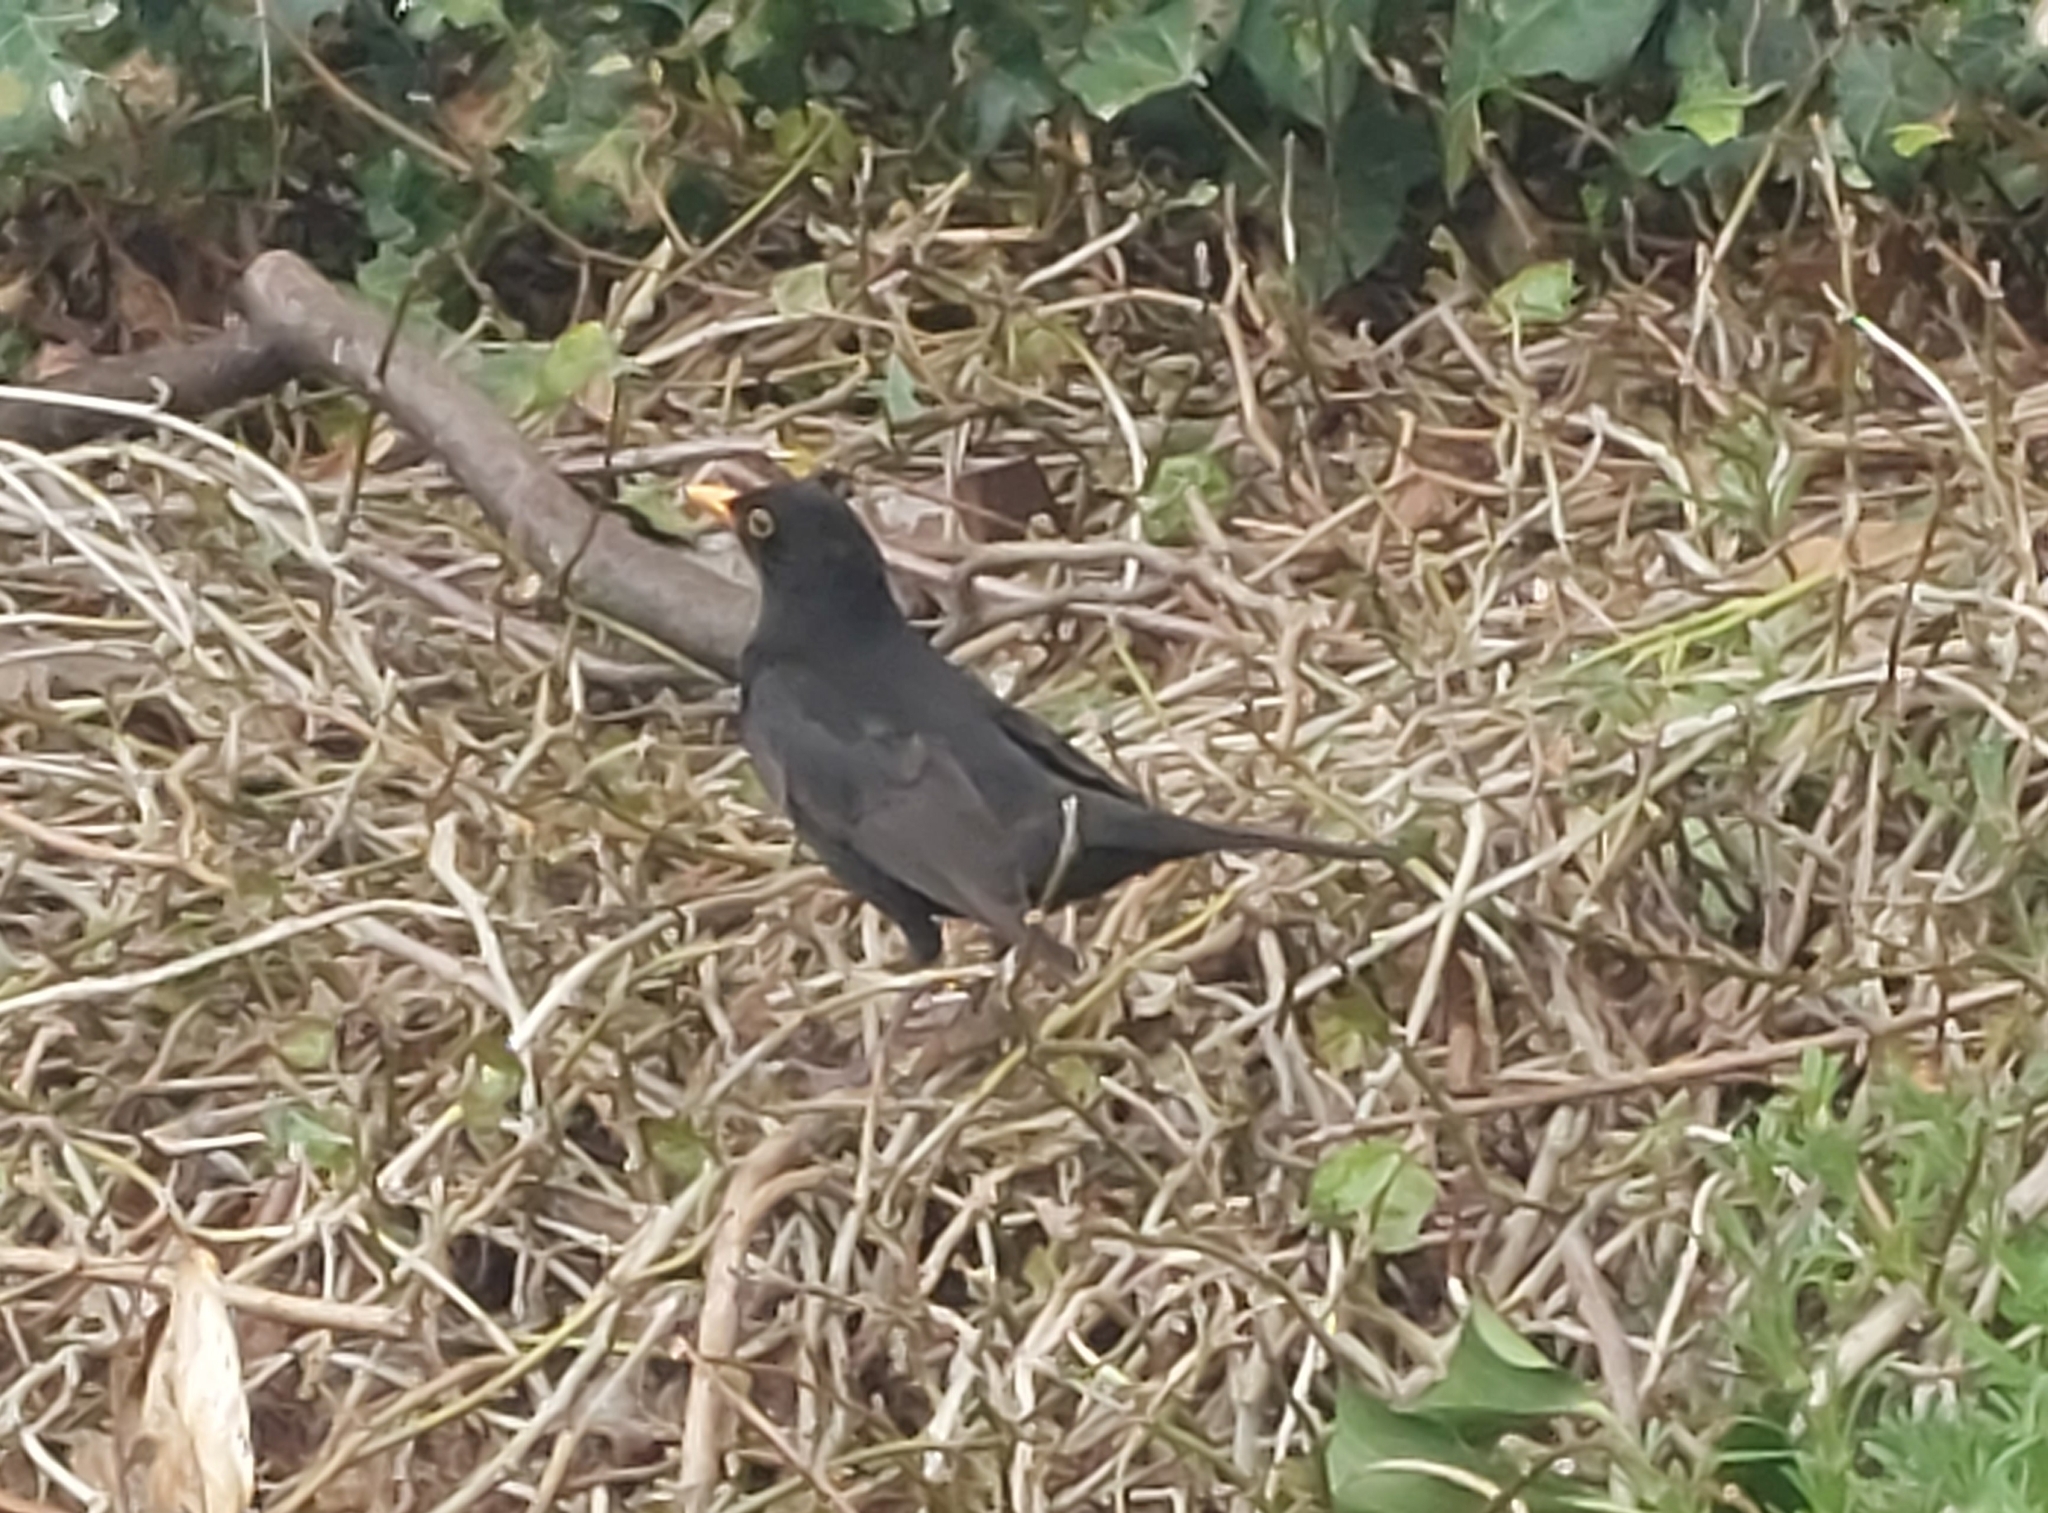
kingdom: Animalia
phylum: Chordata
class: Aves
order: Passeriformes
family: Turdidae
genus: Turdus
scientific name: Turdus merula
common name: Common blackbird
